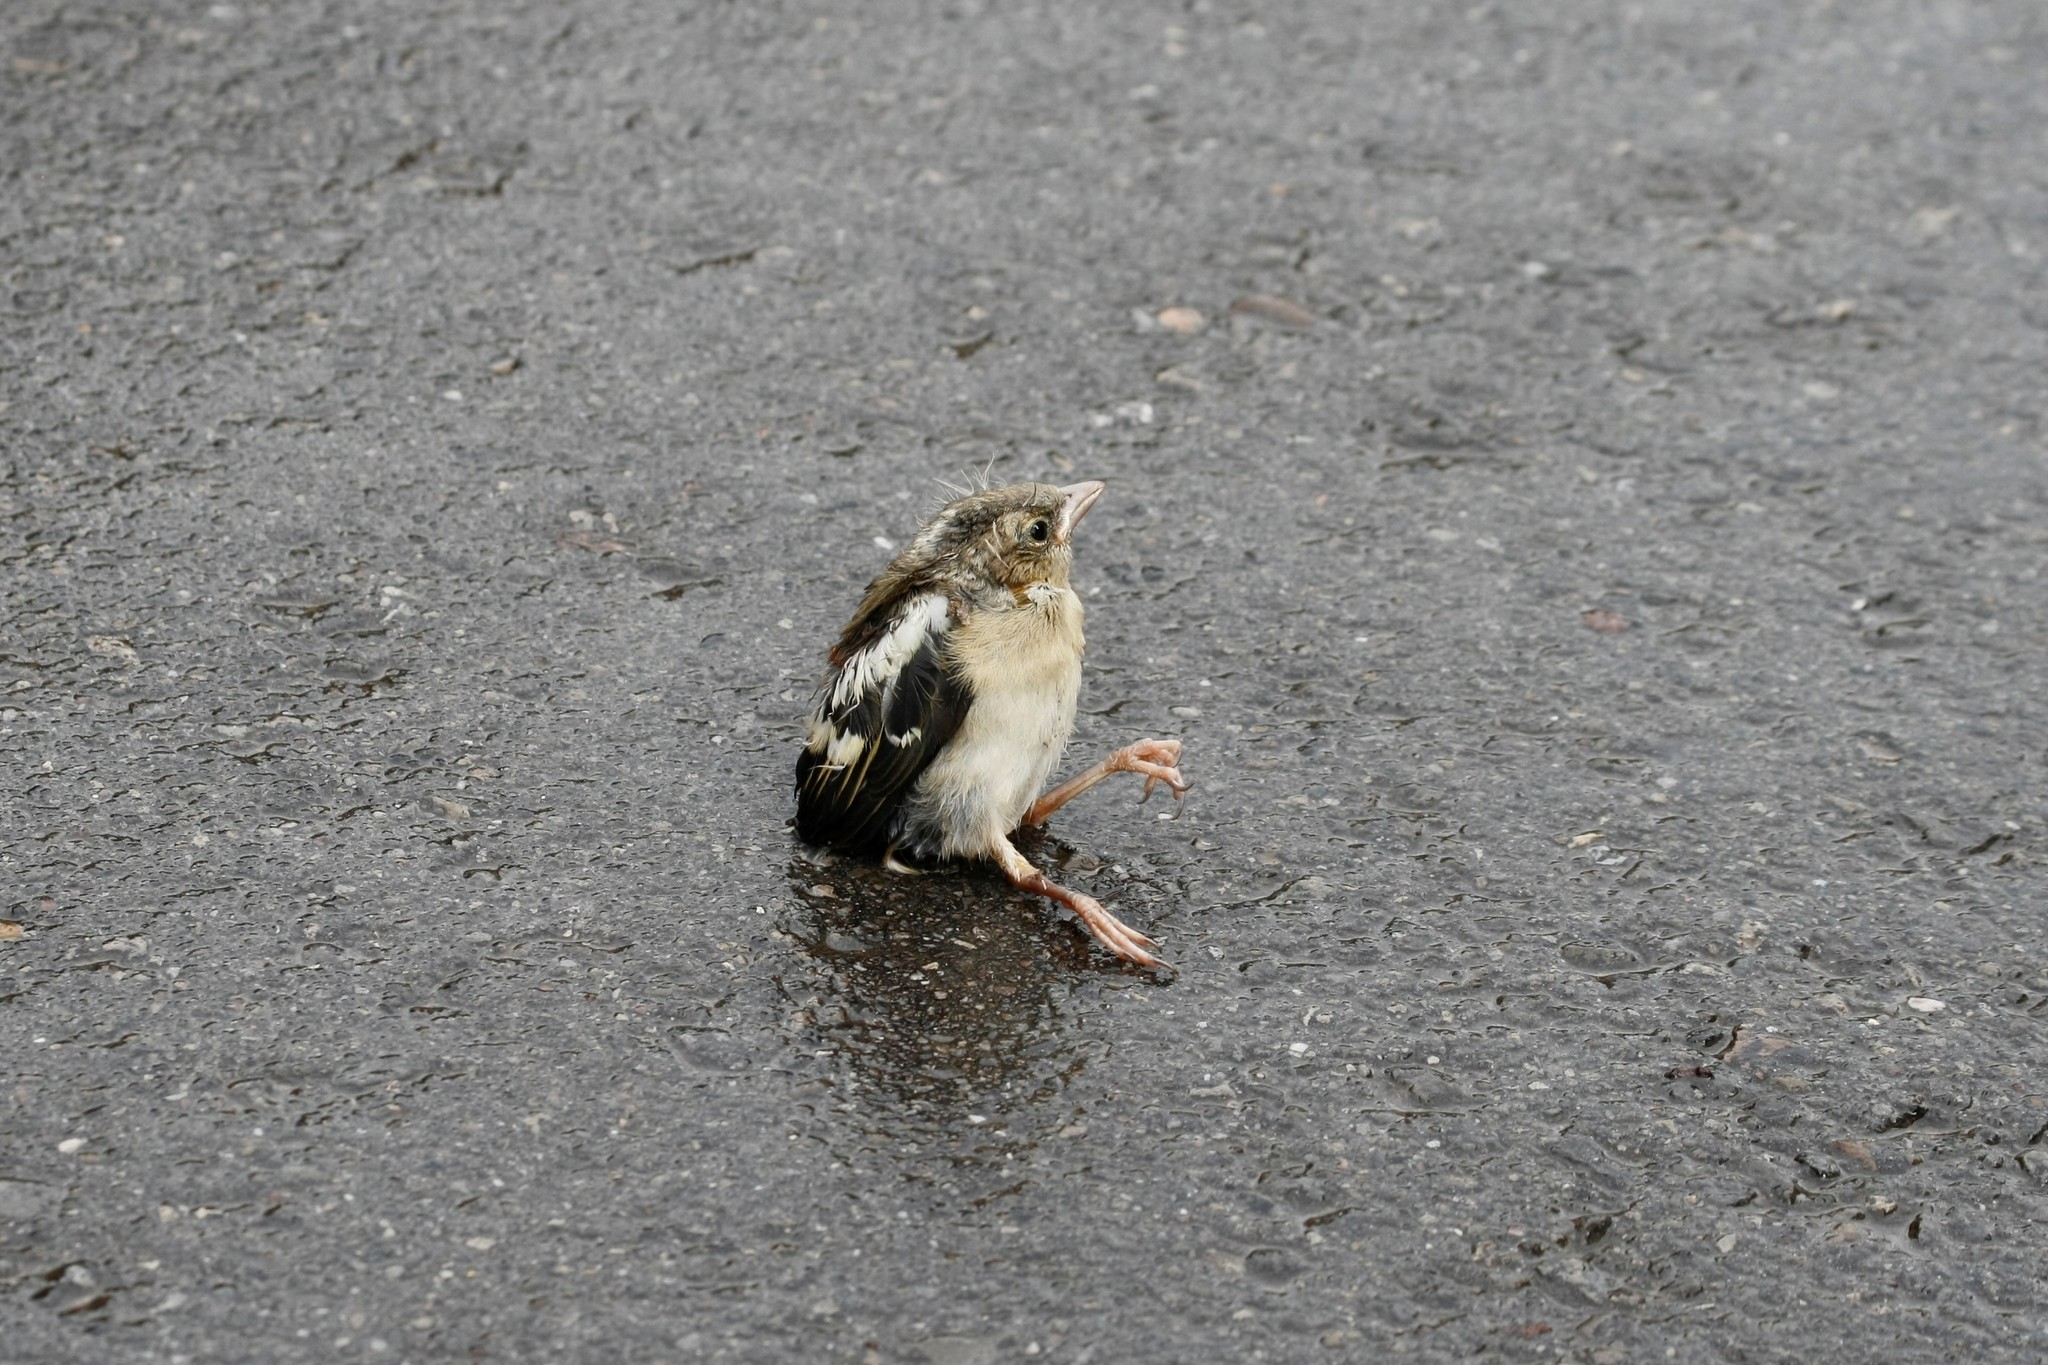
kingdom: Animalia
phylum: Chordata
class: Aves
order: Passeriformes
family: Fringillidae
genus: Fringilla
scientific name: Fringilla coelebs
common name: Common chaffinch
